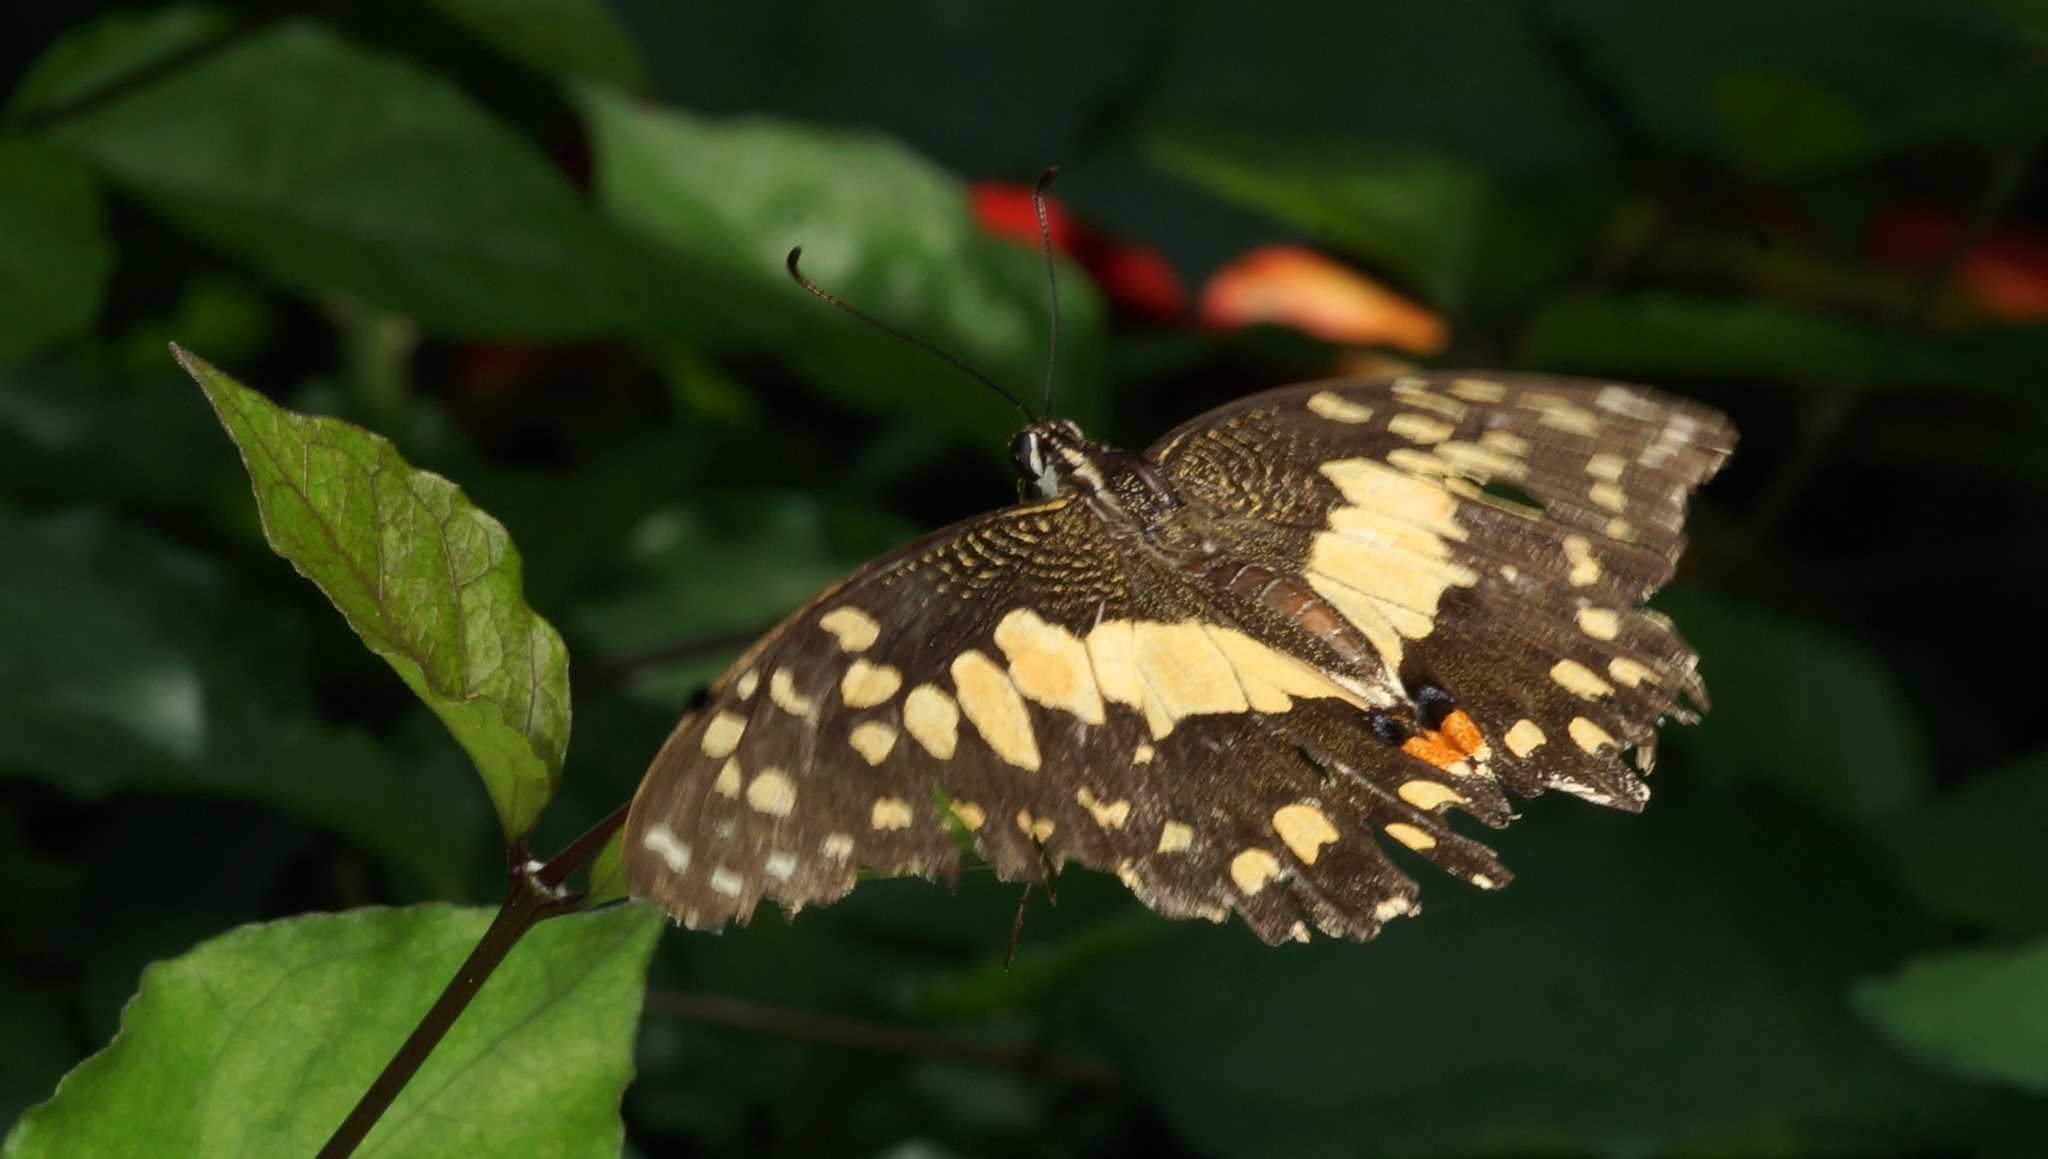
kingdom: Animalia
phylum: Arthropoda
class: Insecta
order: Lepidoptera
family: Papilionidae
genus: Papilio
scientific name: Papilio demoleus
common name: Lime butterfly
